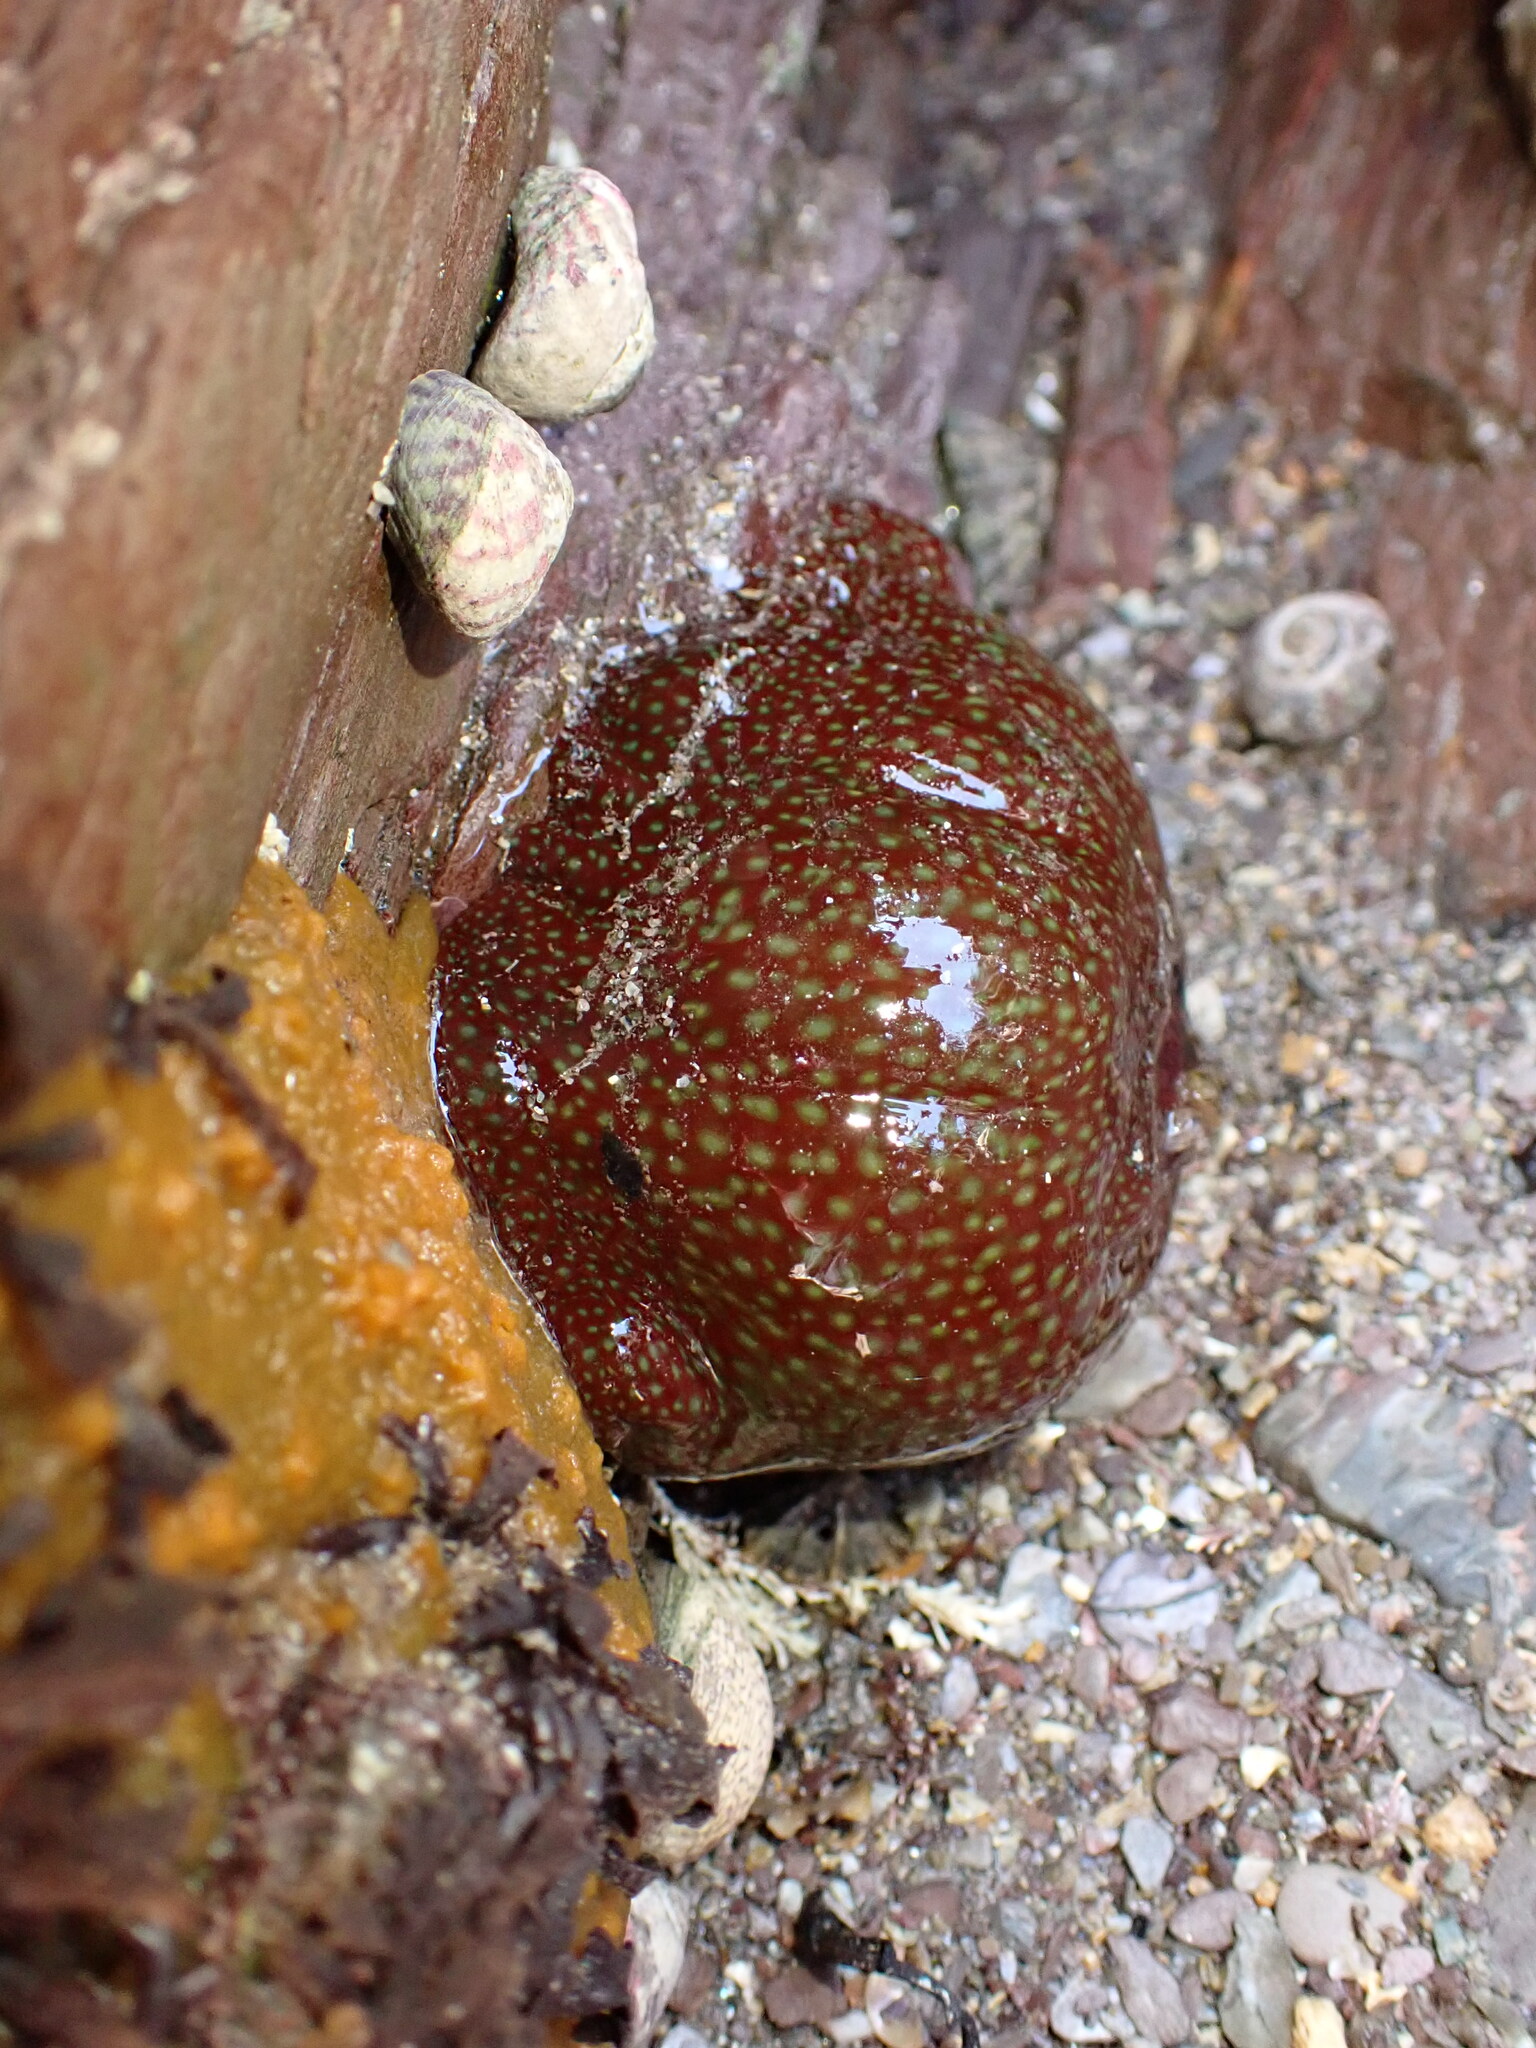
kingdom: Animalia
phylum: Cnidaria
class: Anthozoa
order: Actiniaria
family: Actiniidae
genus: Actinia
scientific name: Actinia fragacea
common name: Strawberry anemone
